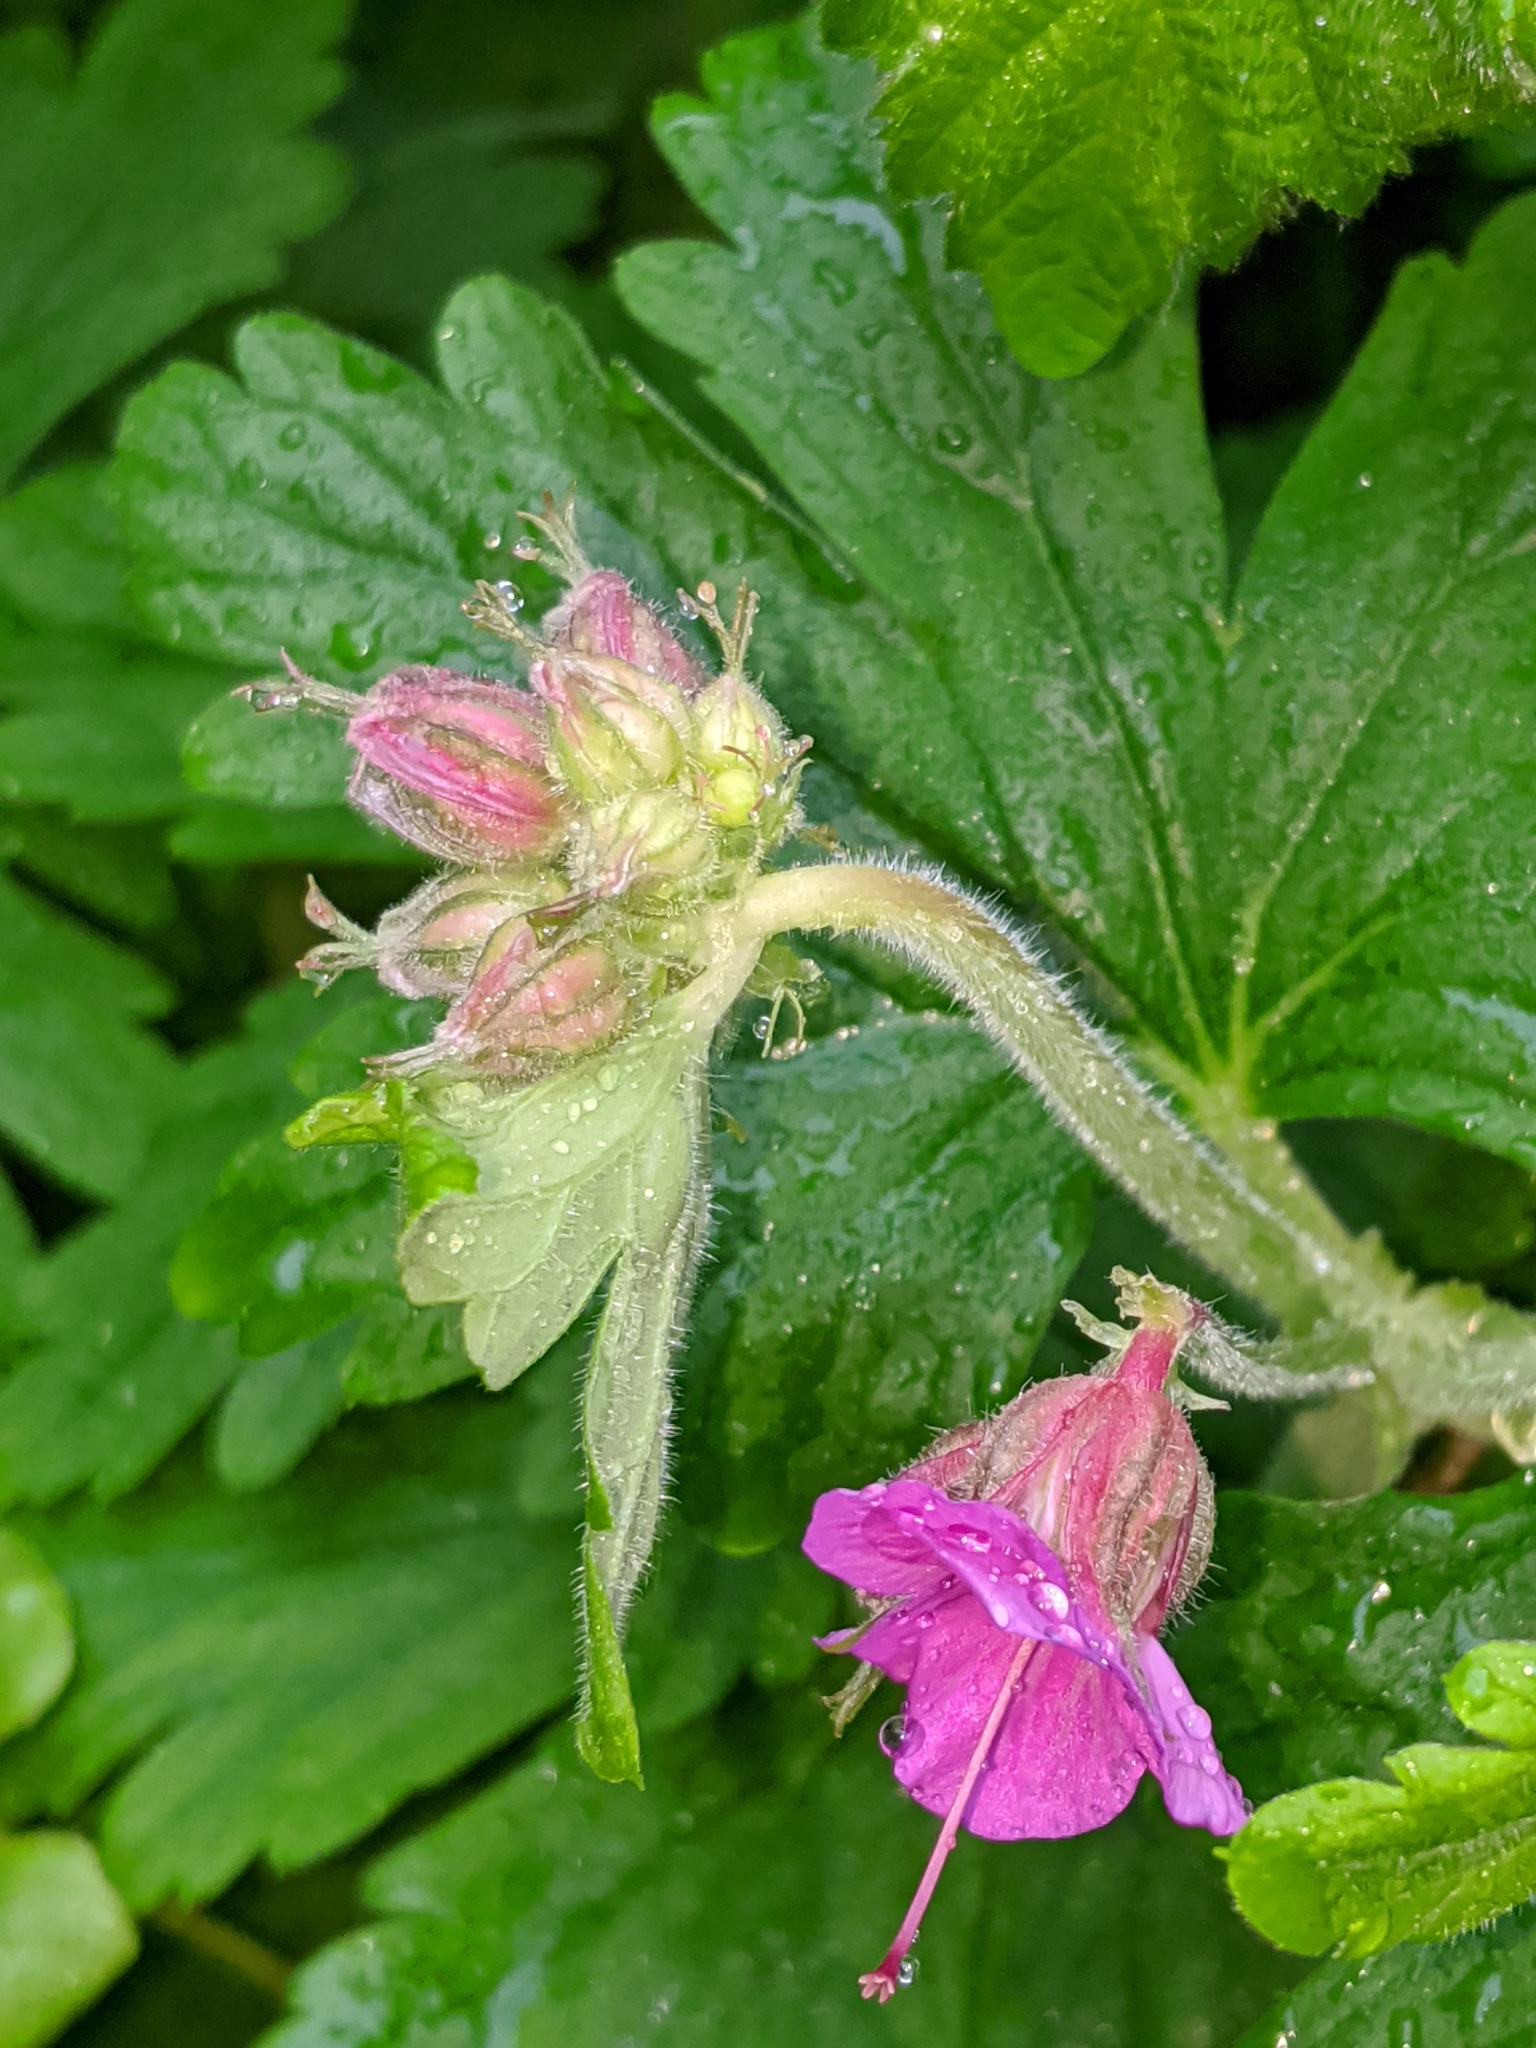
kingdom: Plantae
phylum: Tracheophyta
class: Magnoliopsida
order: Geraniales
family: Geraniaceae
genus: Geranium
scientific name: Geranium macrorrhizum
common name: Rock crane's-bill
